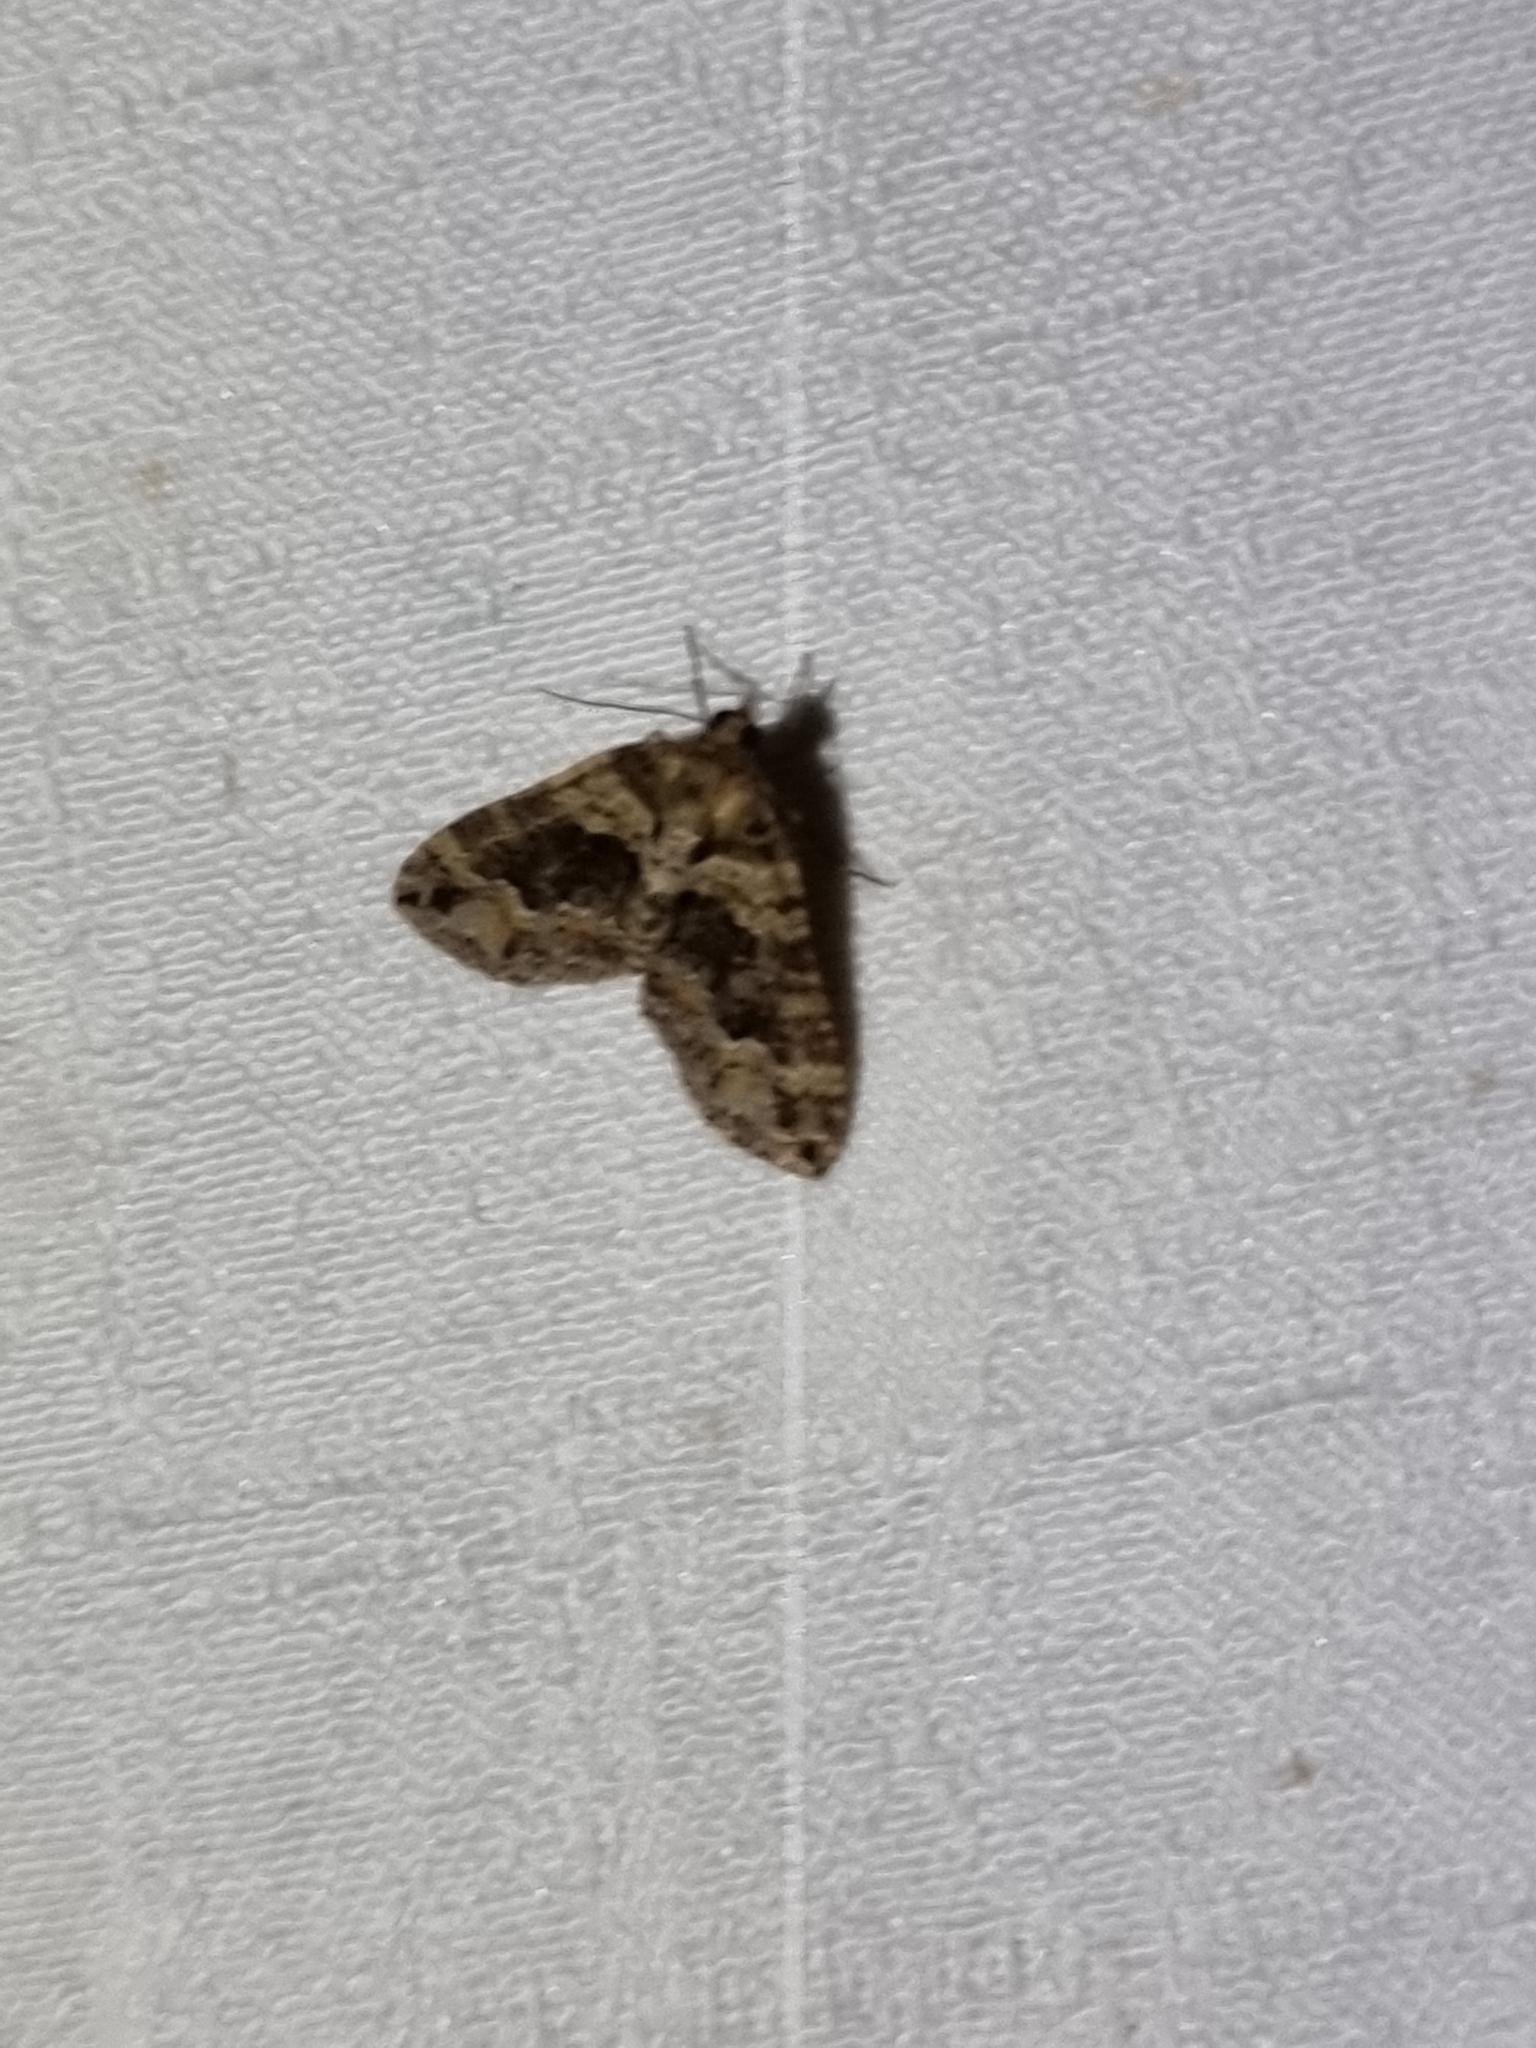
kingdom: Animalia
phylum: Arthropoda
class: Insecta
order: Lepidoptera
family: Geometridae
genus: Crasilogia
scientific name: Crasilogia gressitti
